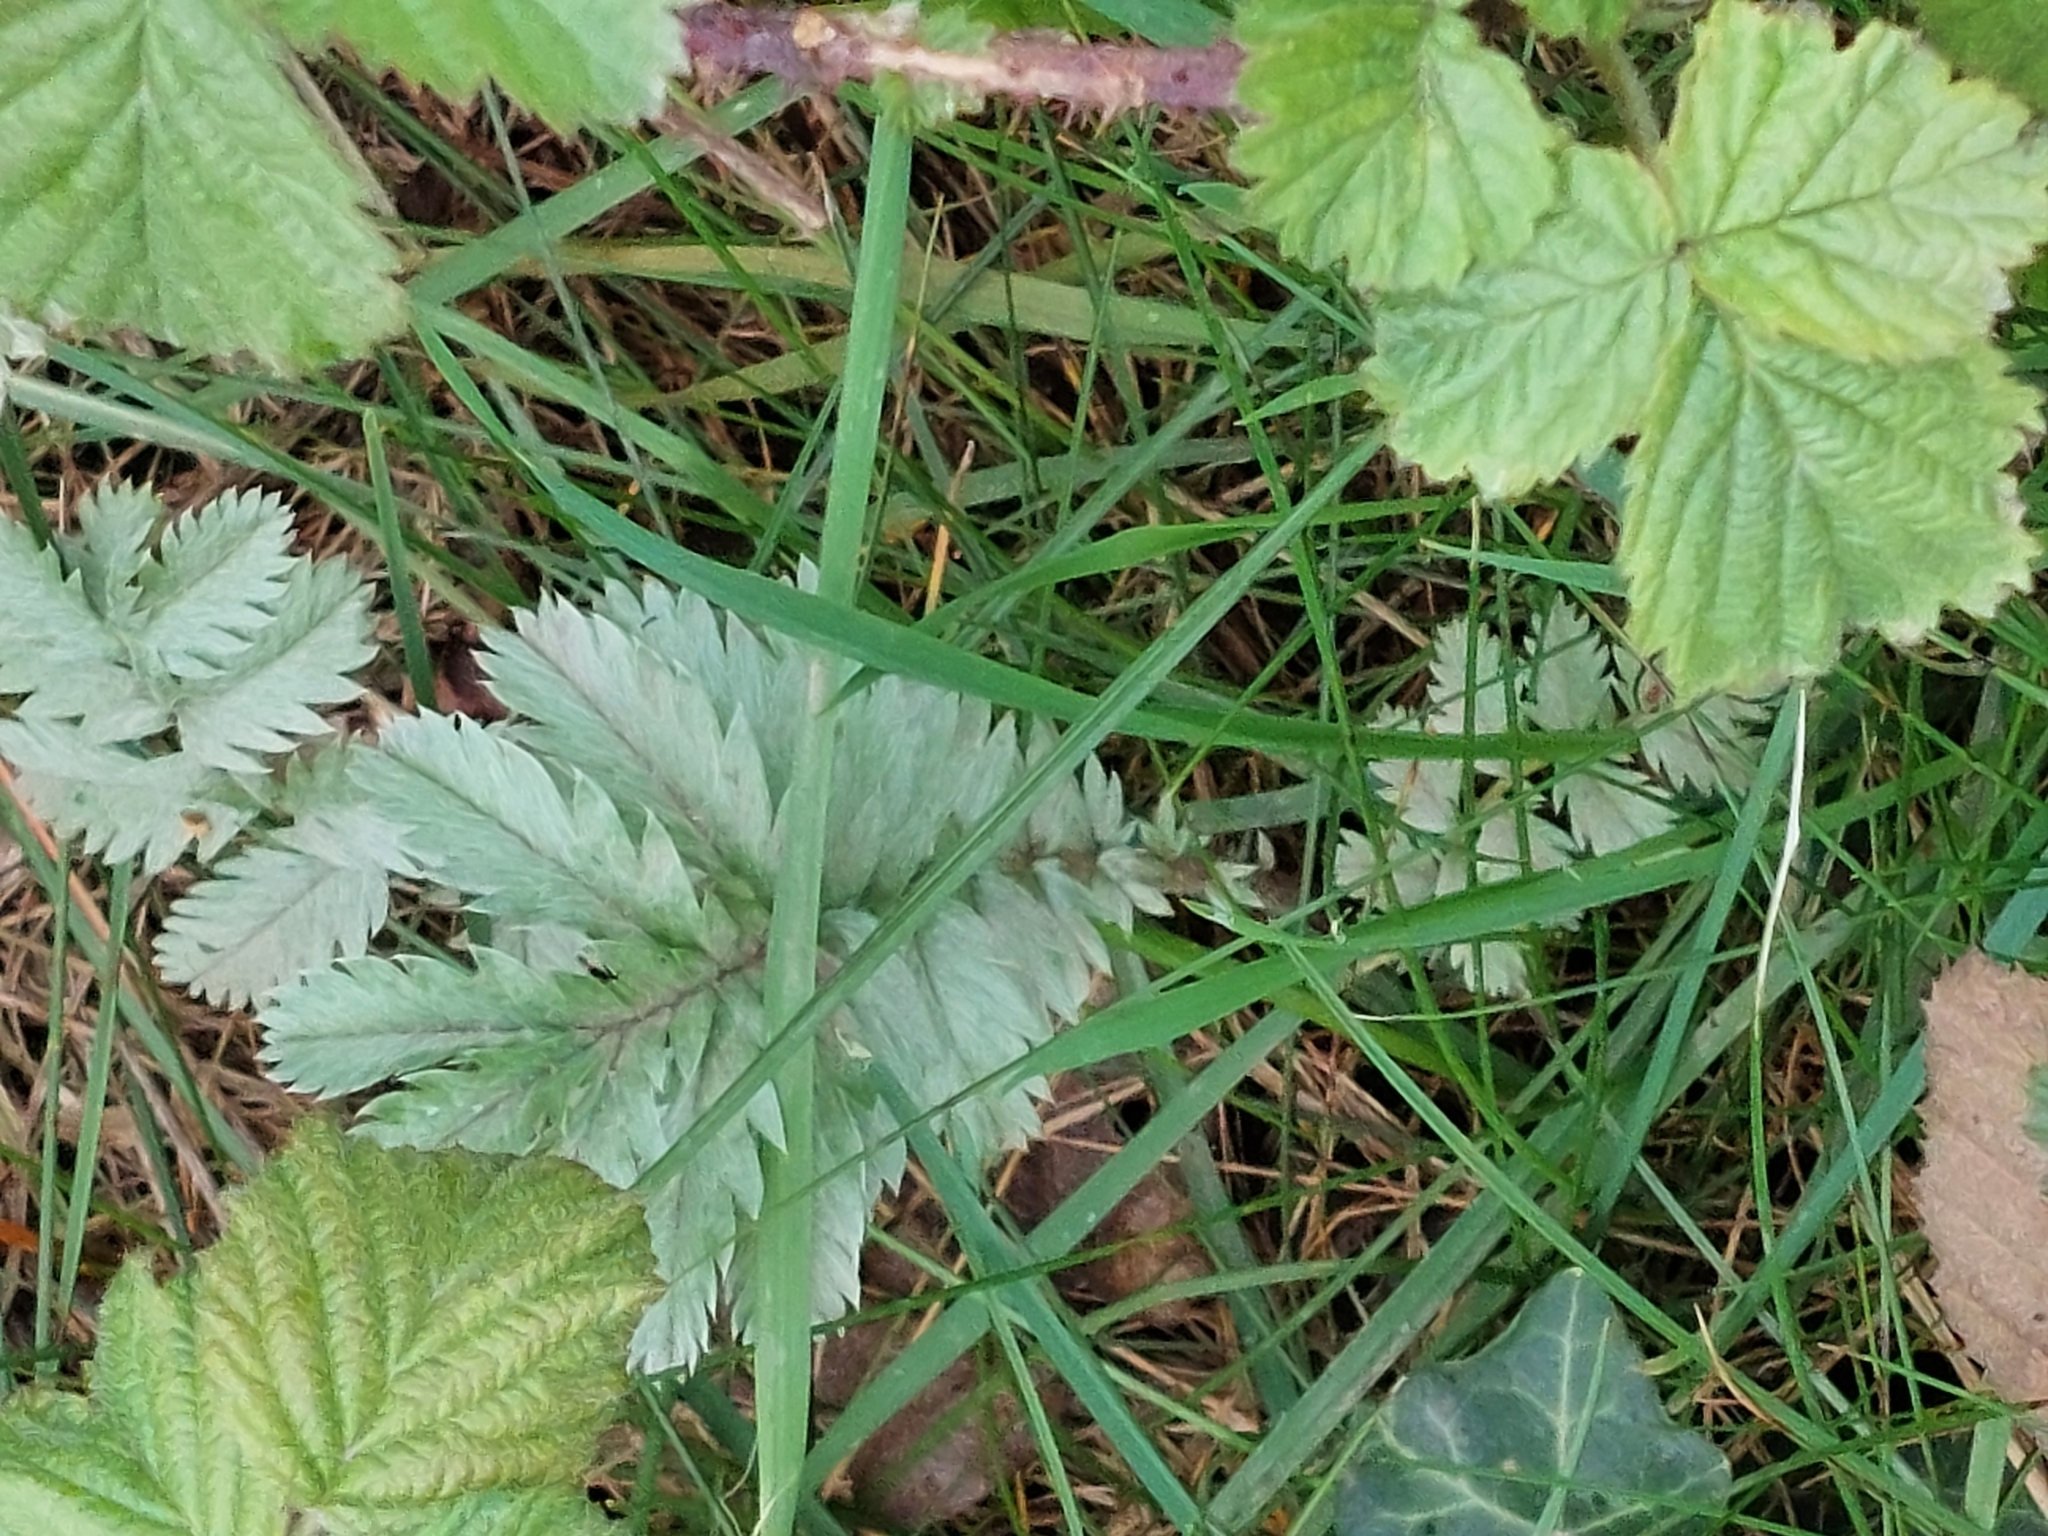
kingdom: Plantae
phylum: Tracheophyta
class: Magnoliopsida
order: Rosales
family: Rosaceae
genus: Argentina
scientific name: Argentina anserina
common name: Common silverweed
